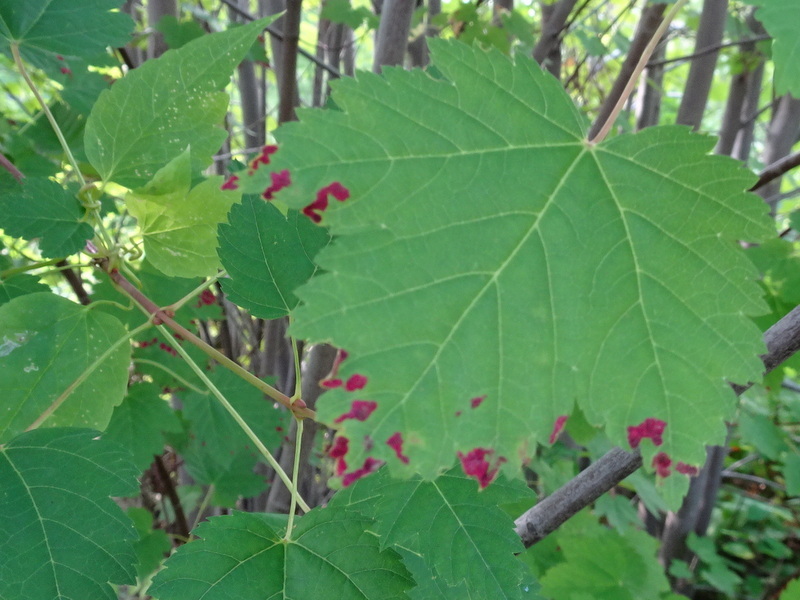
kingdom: Animalia
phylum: Arthropoda
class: Arachnida
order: Trombidiformes
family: Eriophyidae
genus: Aceria
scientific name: Aceria
